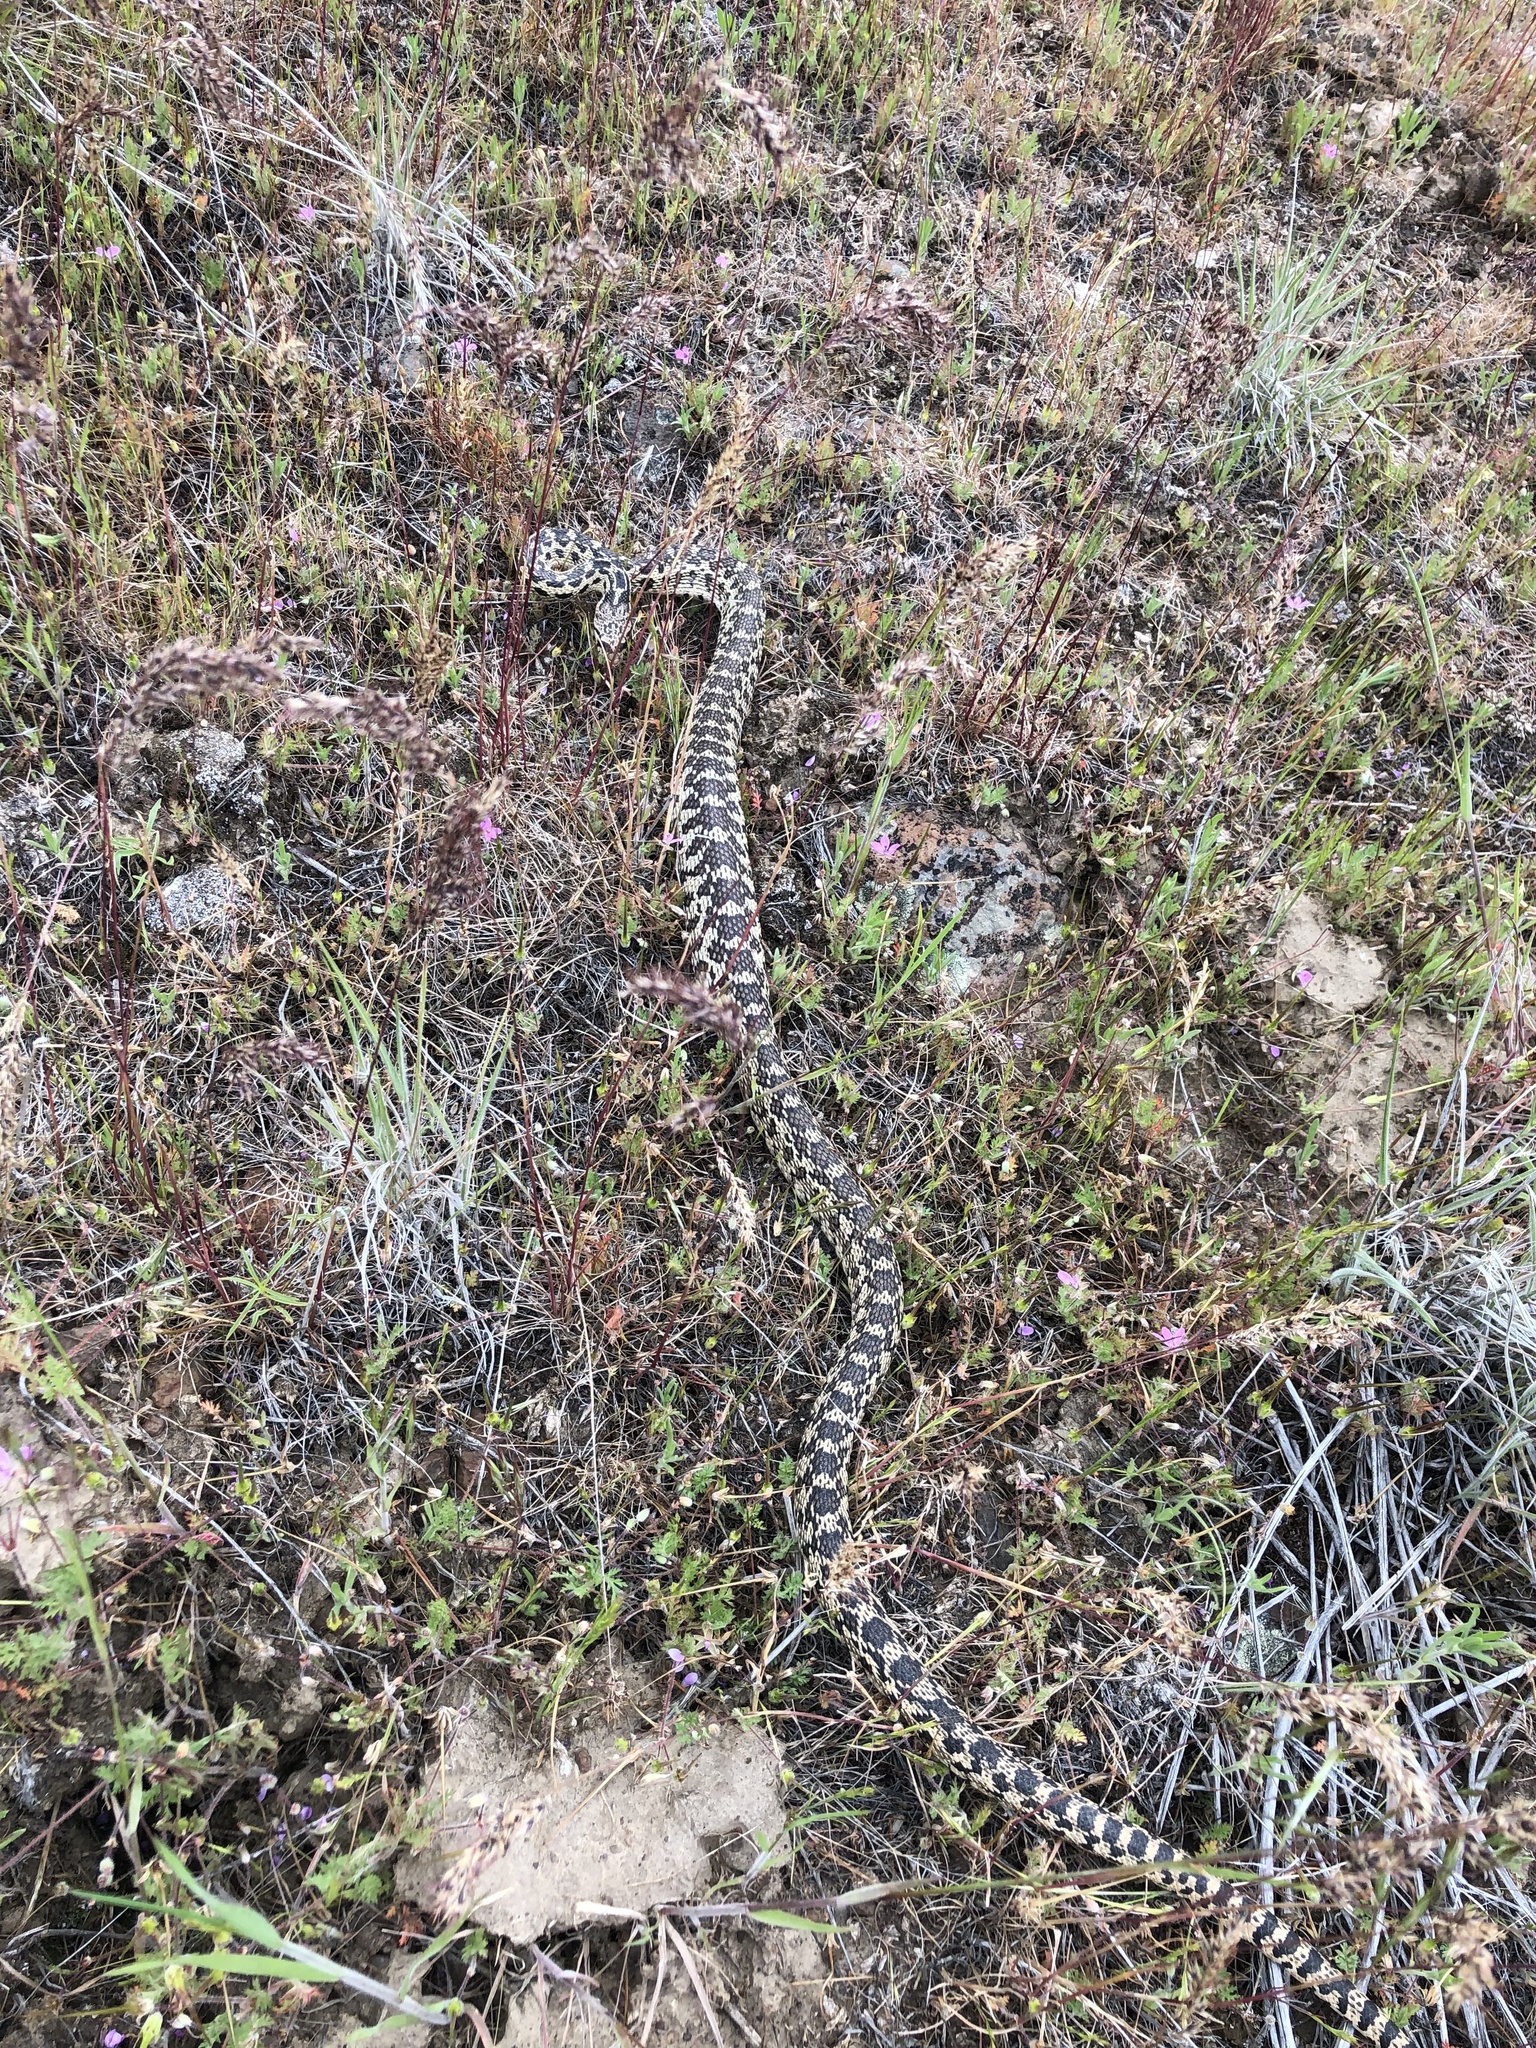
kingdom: Animalia
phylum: Chordata
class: Squamata
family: Colubridae
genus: Pituophis
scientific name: Pituophis catenifer
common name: Gopher snake
